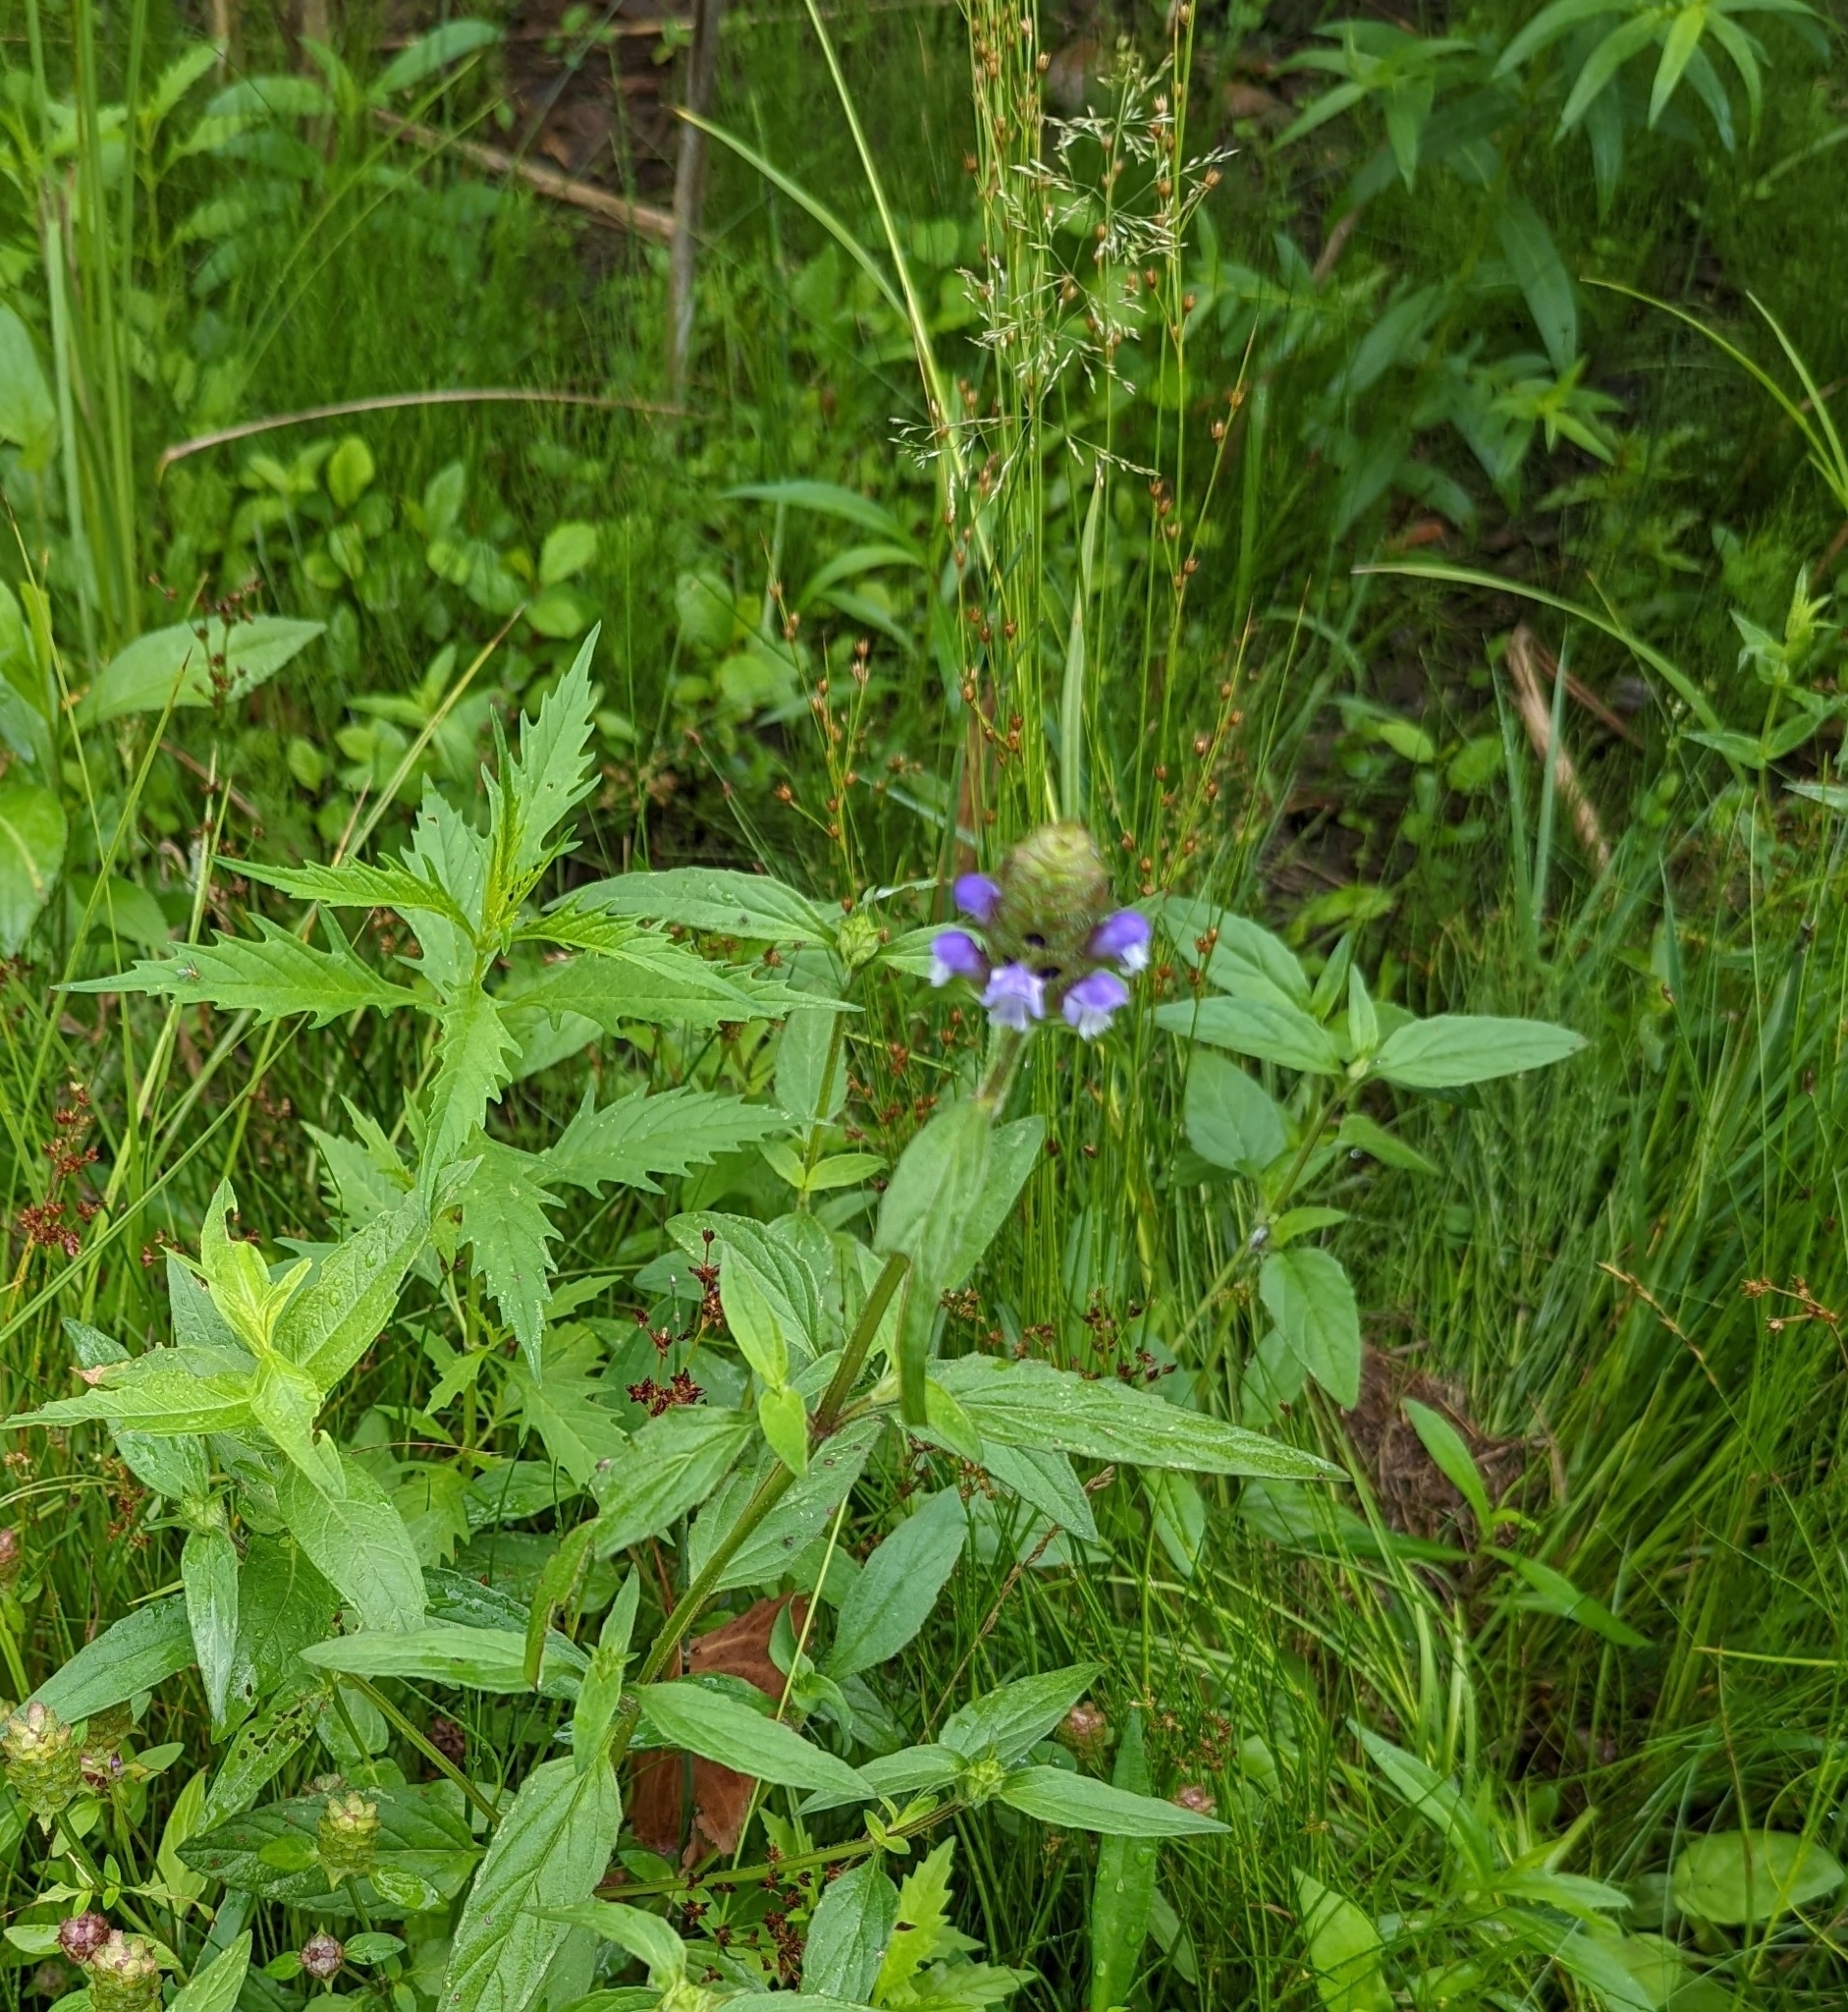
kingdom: Plantae
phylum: Tracheophyta
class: Magnoliopsida
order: Lamiales
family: Lamiaceae
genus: Prunella
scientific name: Prunella vulgaris
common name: Heal-all
